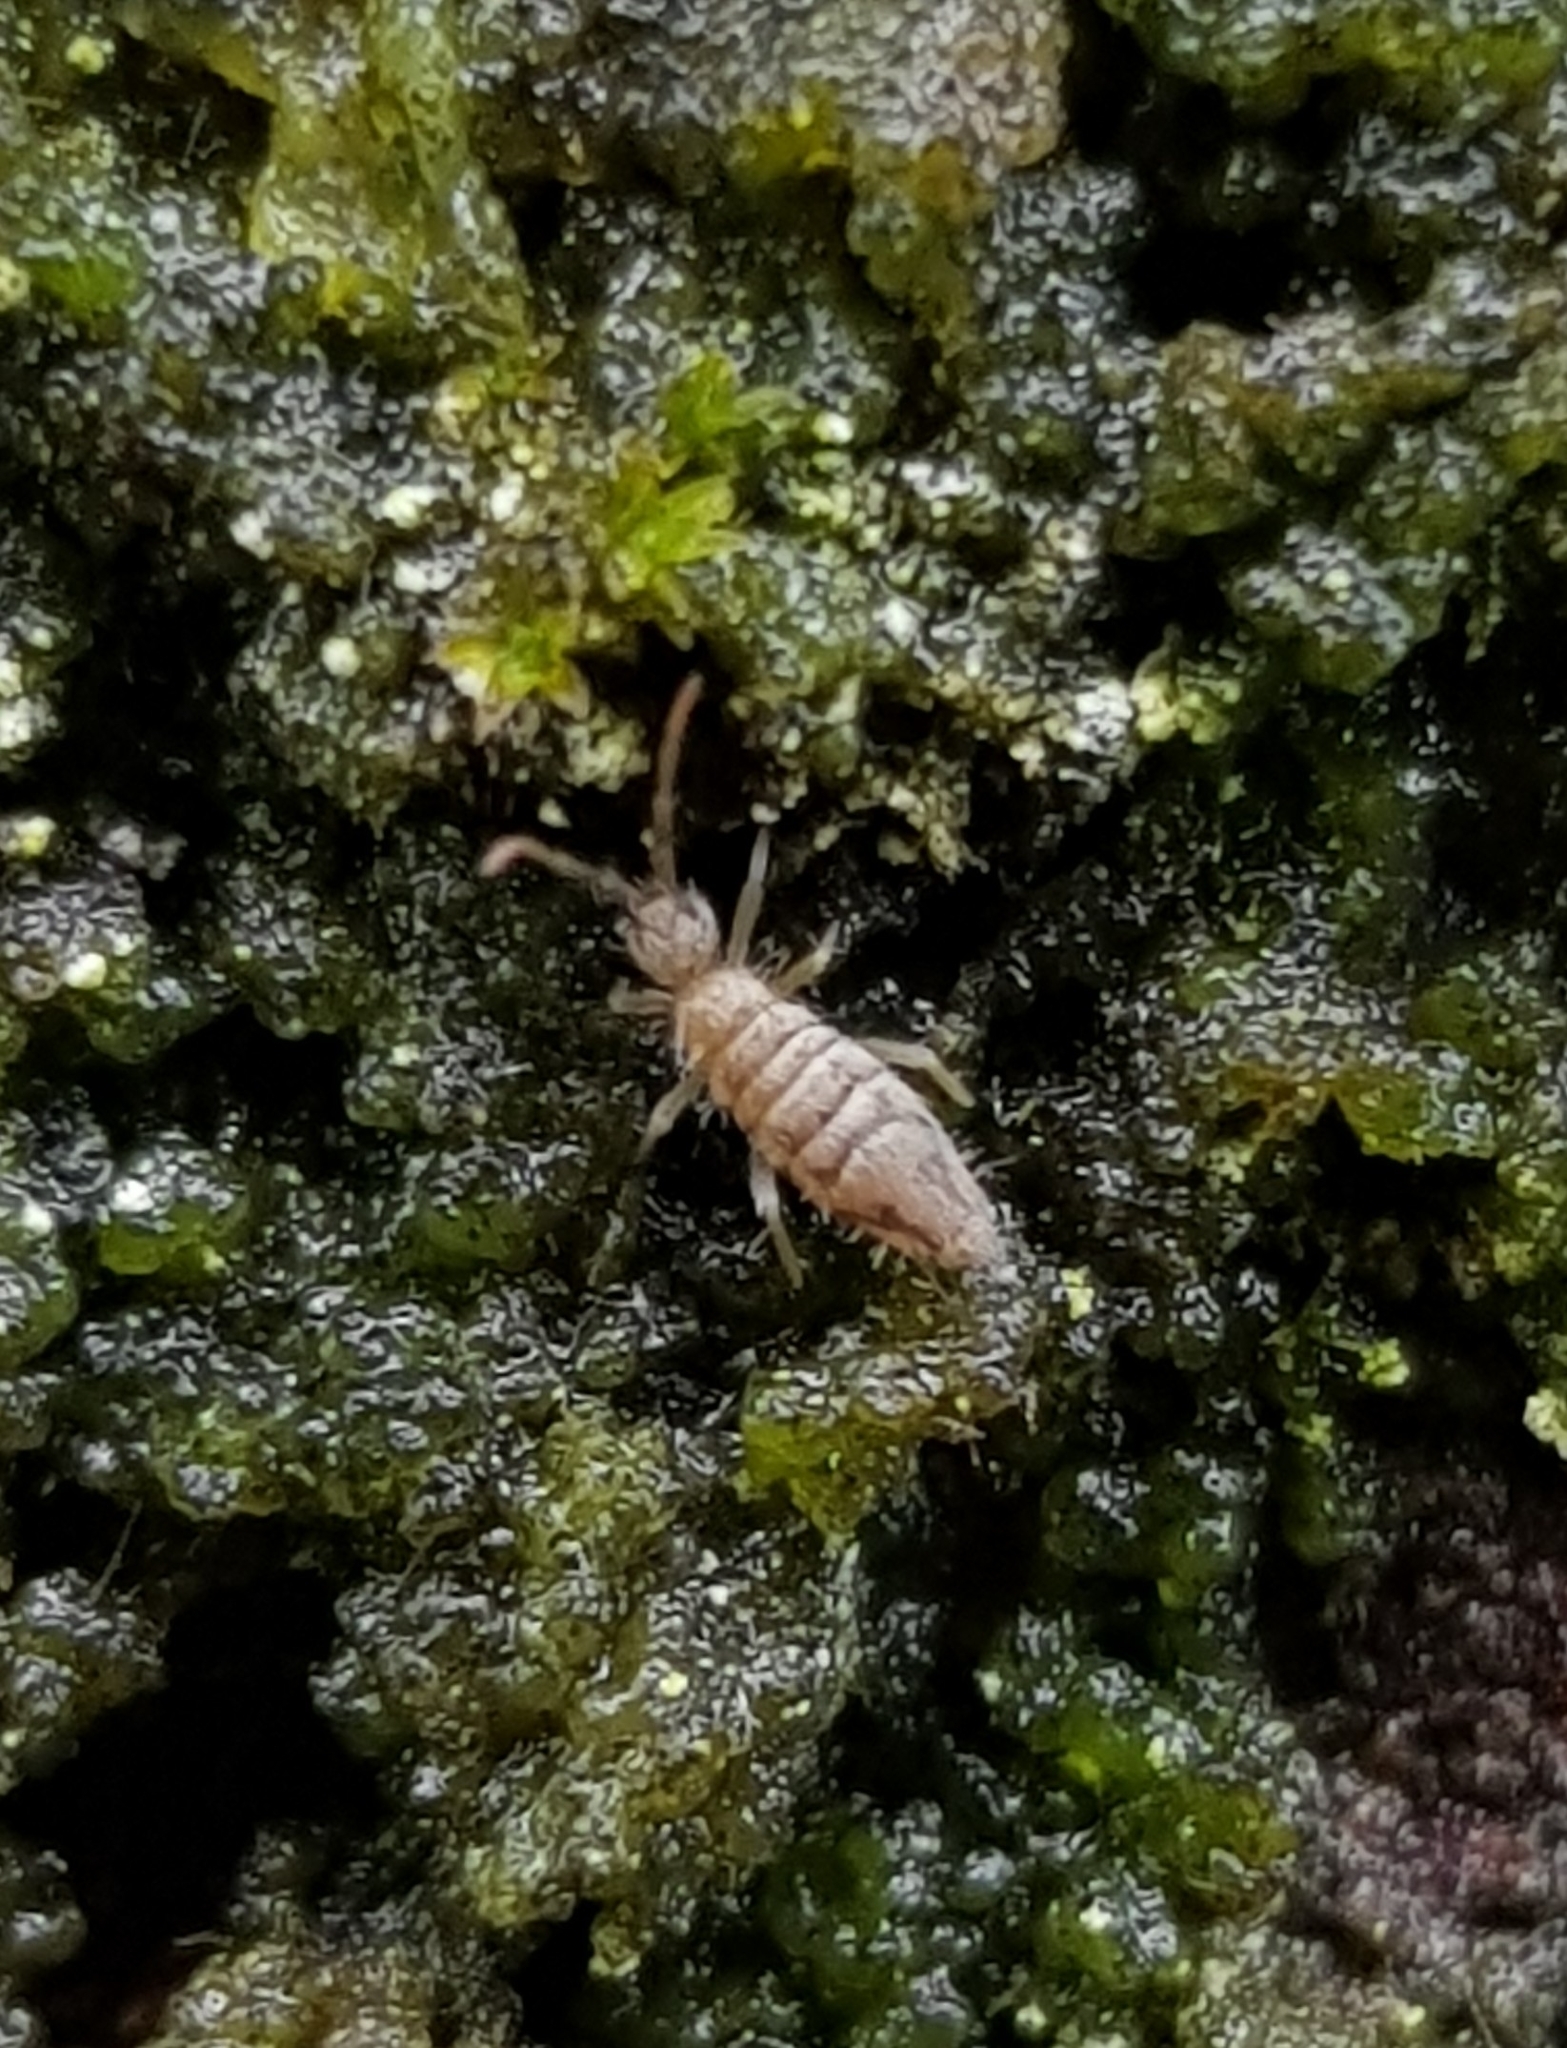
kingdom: Animalia
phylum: Arthropoda
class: Collembola
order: Entomobryomorpha
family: Entomobryidae
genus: Entomobrya
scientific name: Entomobrya nivalis
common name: Cosmopolitan springtail
